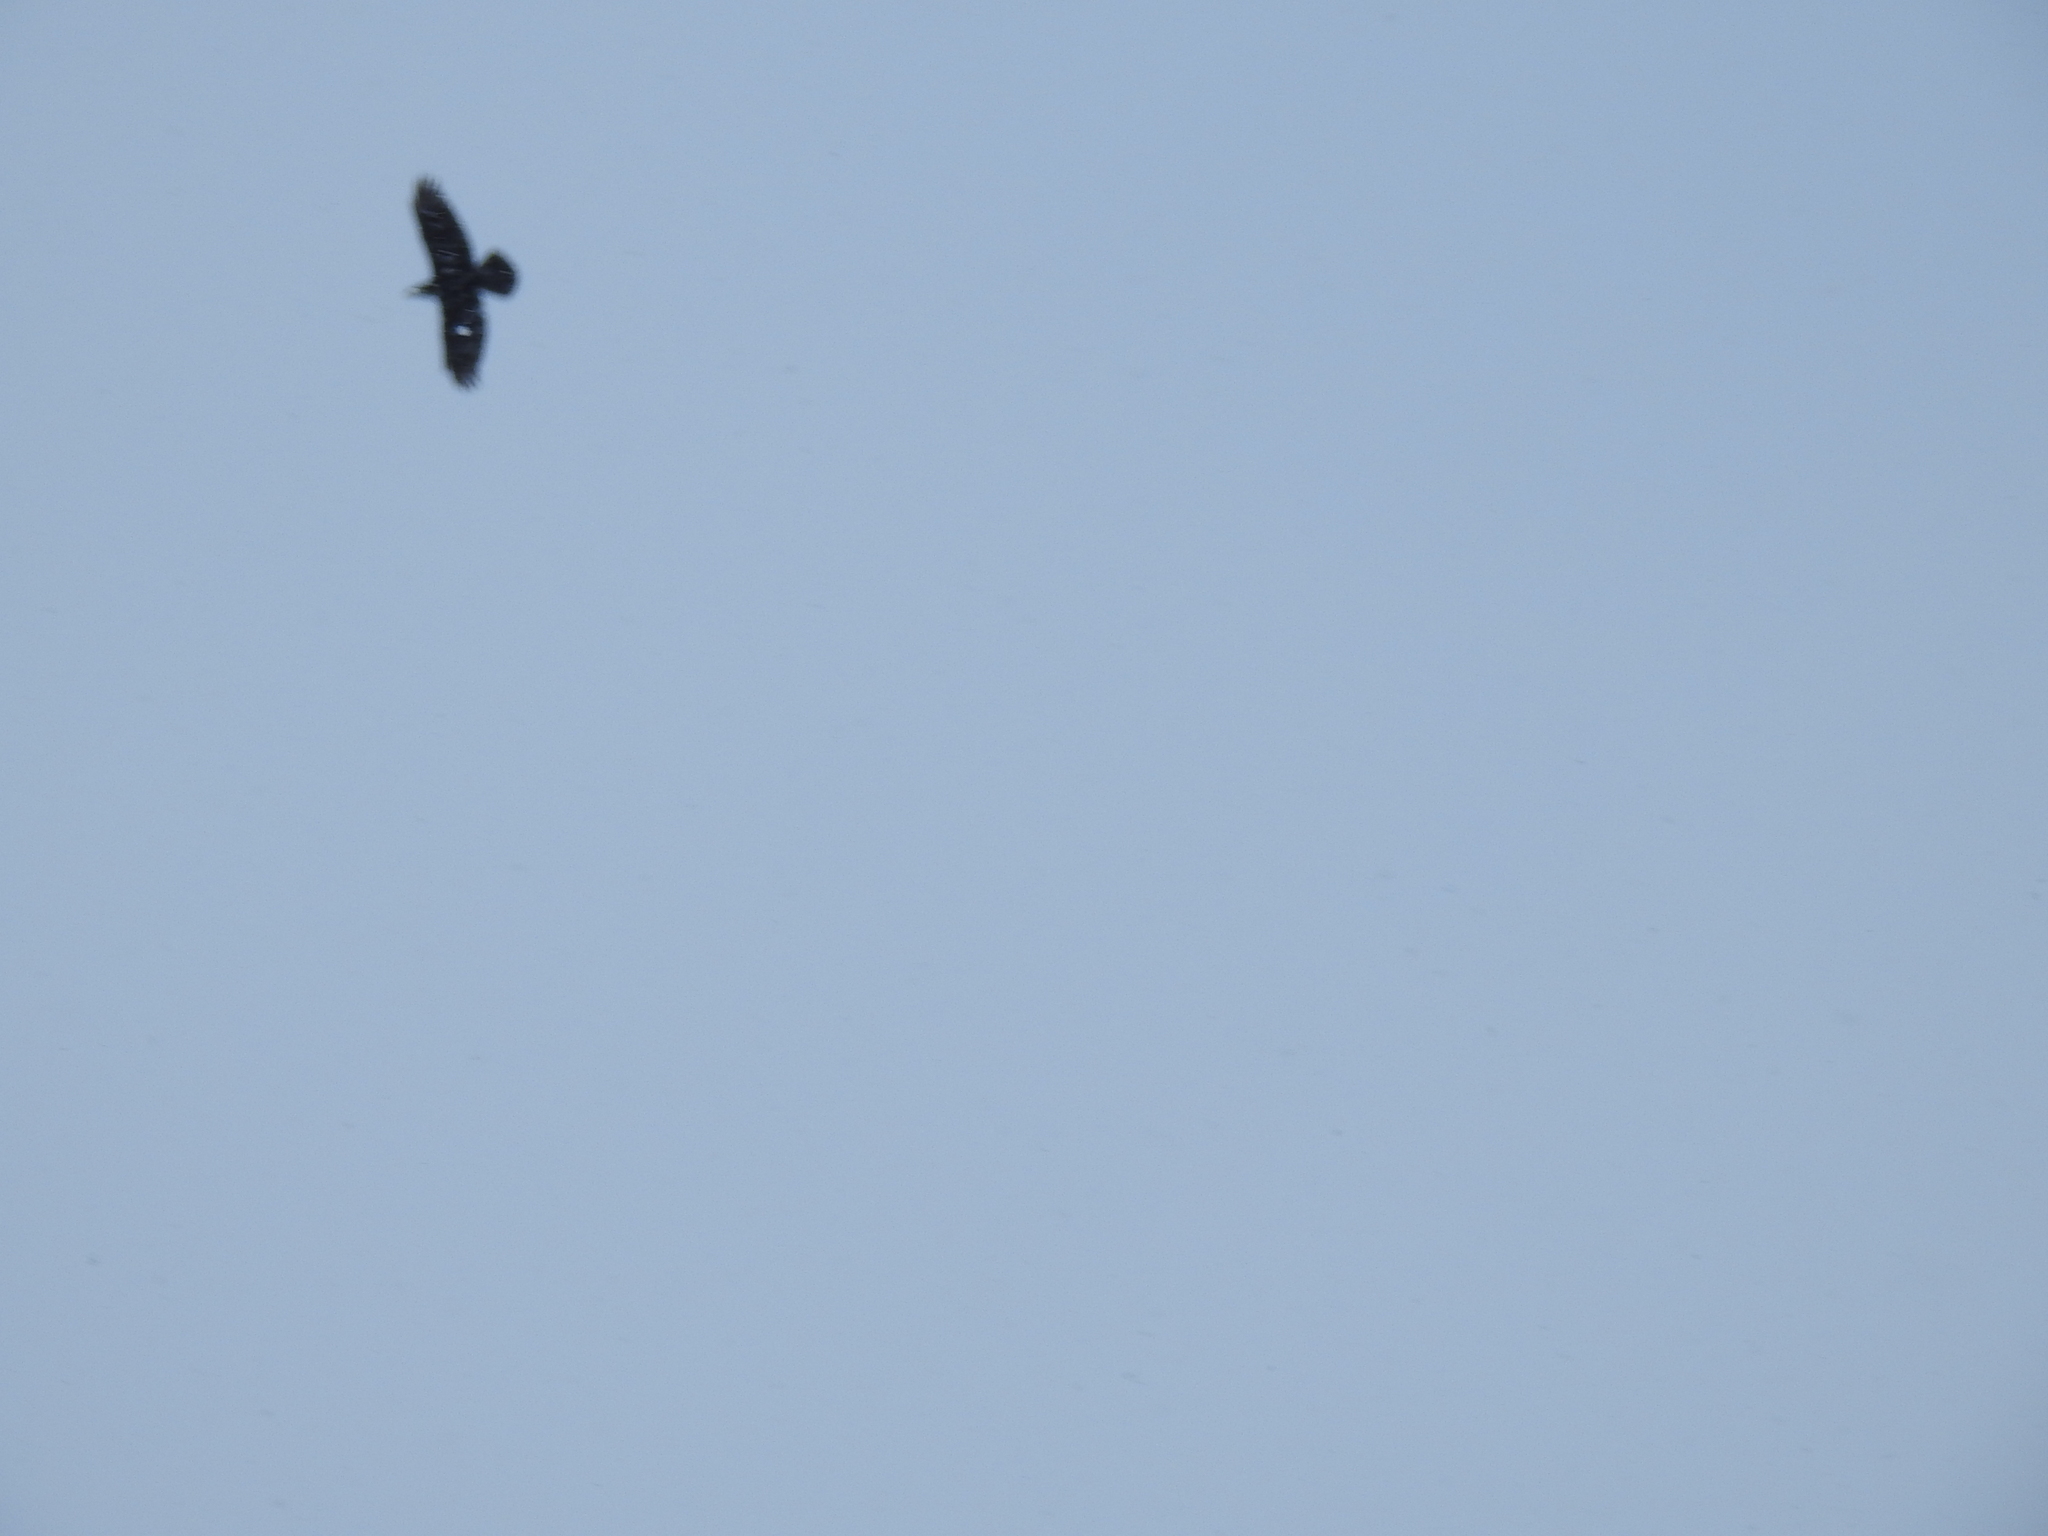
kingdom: Animalia
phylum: Chordata
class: Aves
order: Passeriformes
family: Corvidae
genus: Corvus
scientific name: Corvus corax
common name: Common raven
